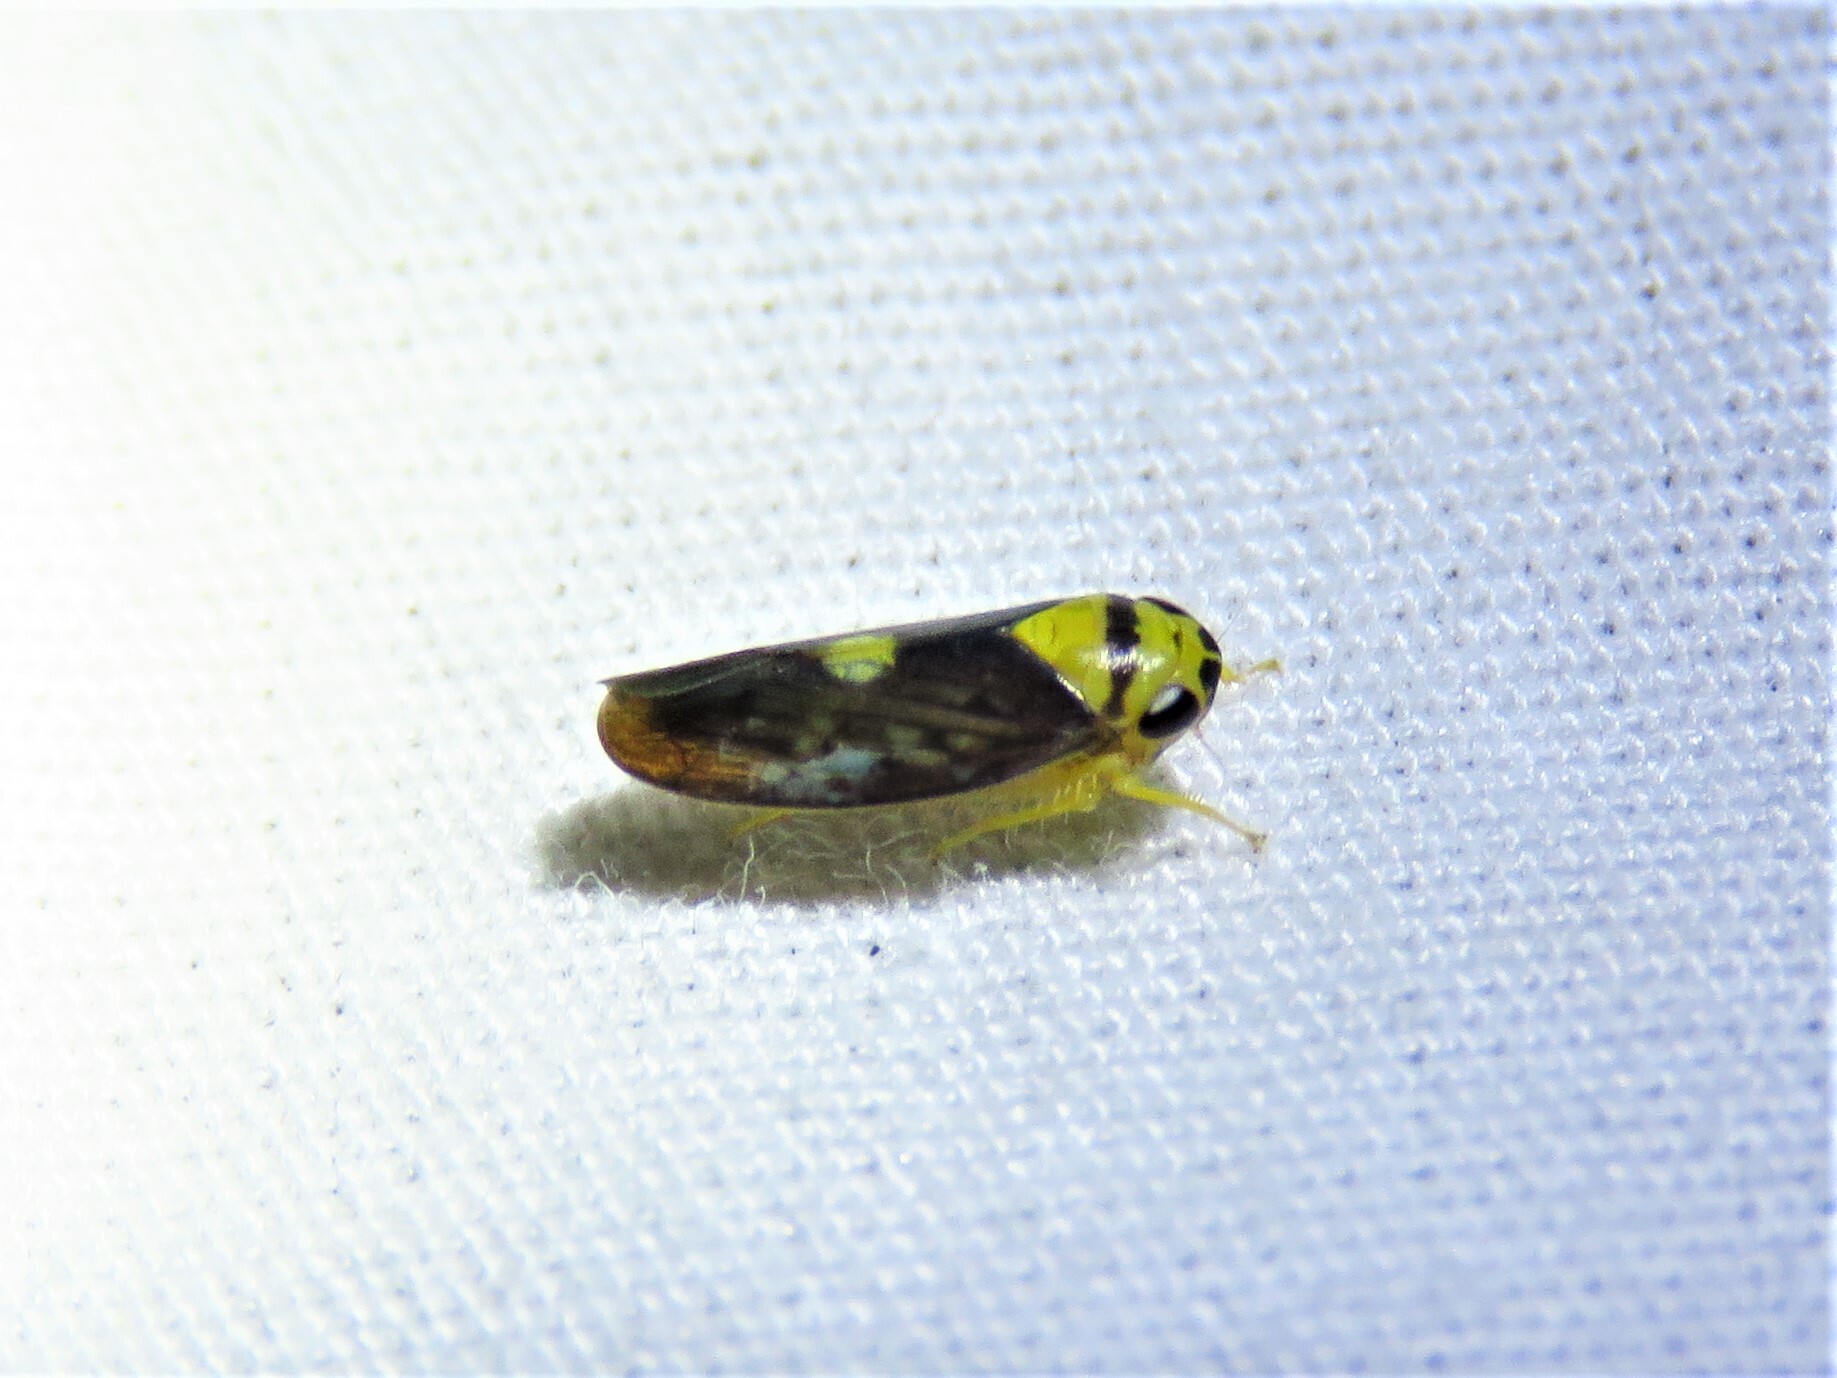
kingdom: Animalia
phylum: Arthropoda
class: Insecta
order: Hemiptera
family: Cicadellidae
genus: Eutettix
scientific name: Eutettix pictus
